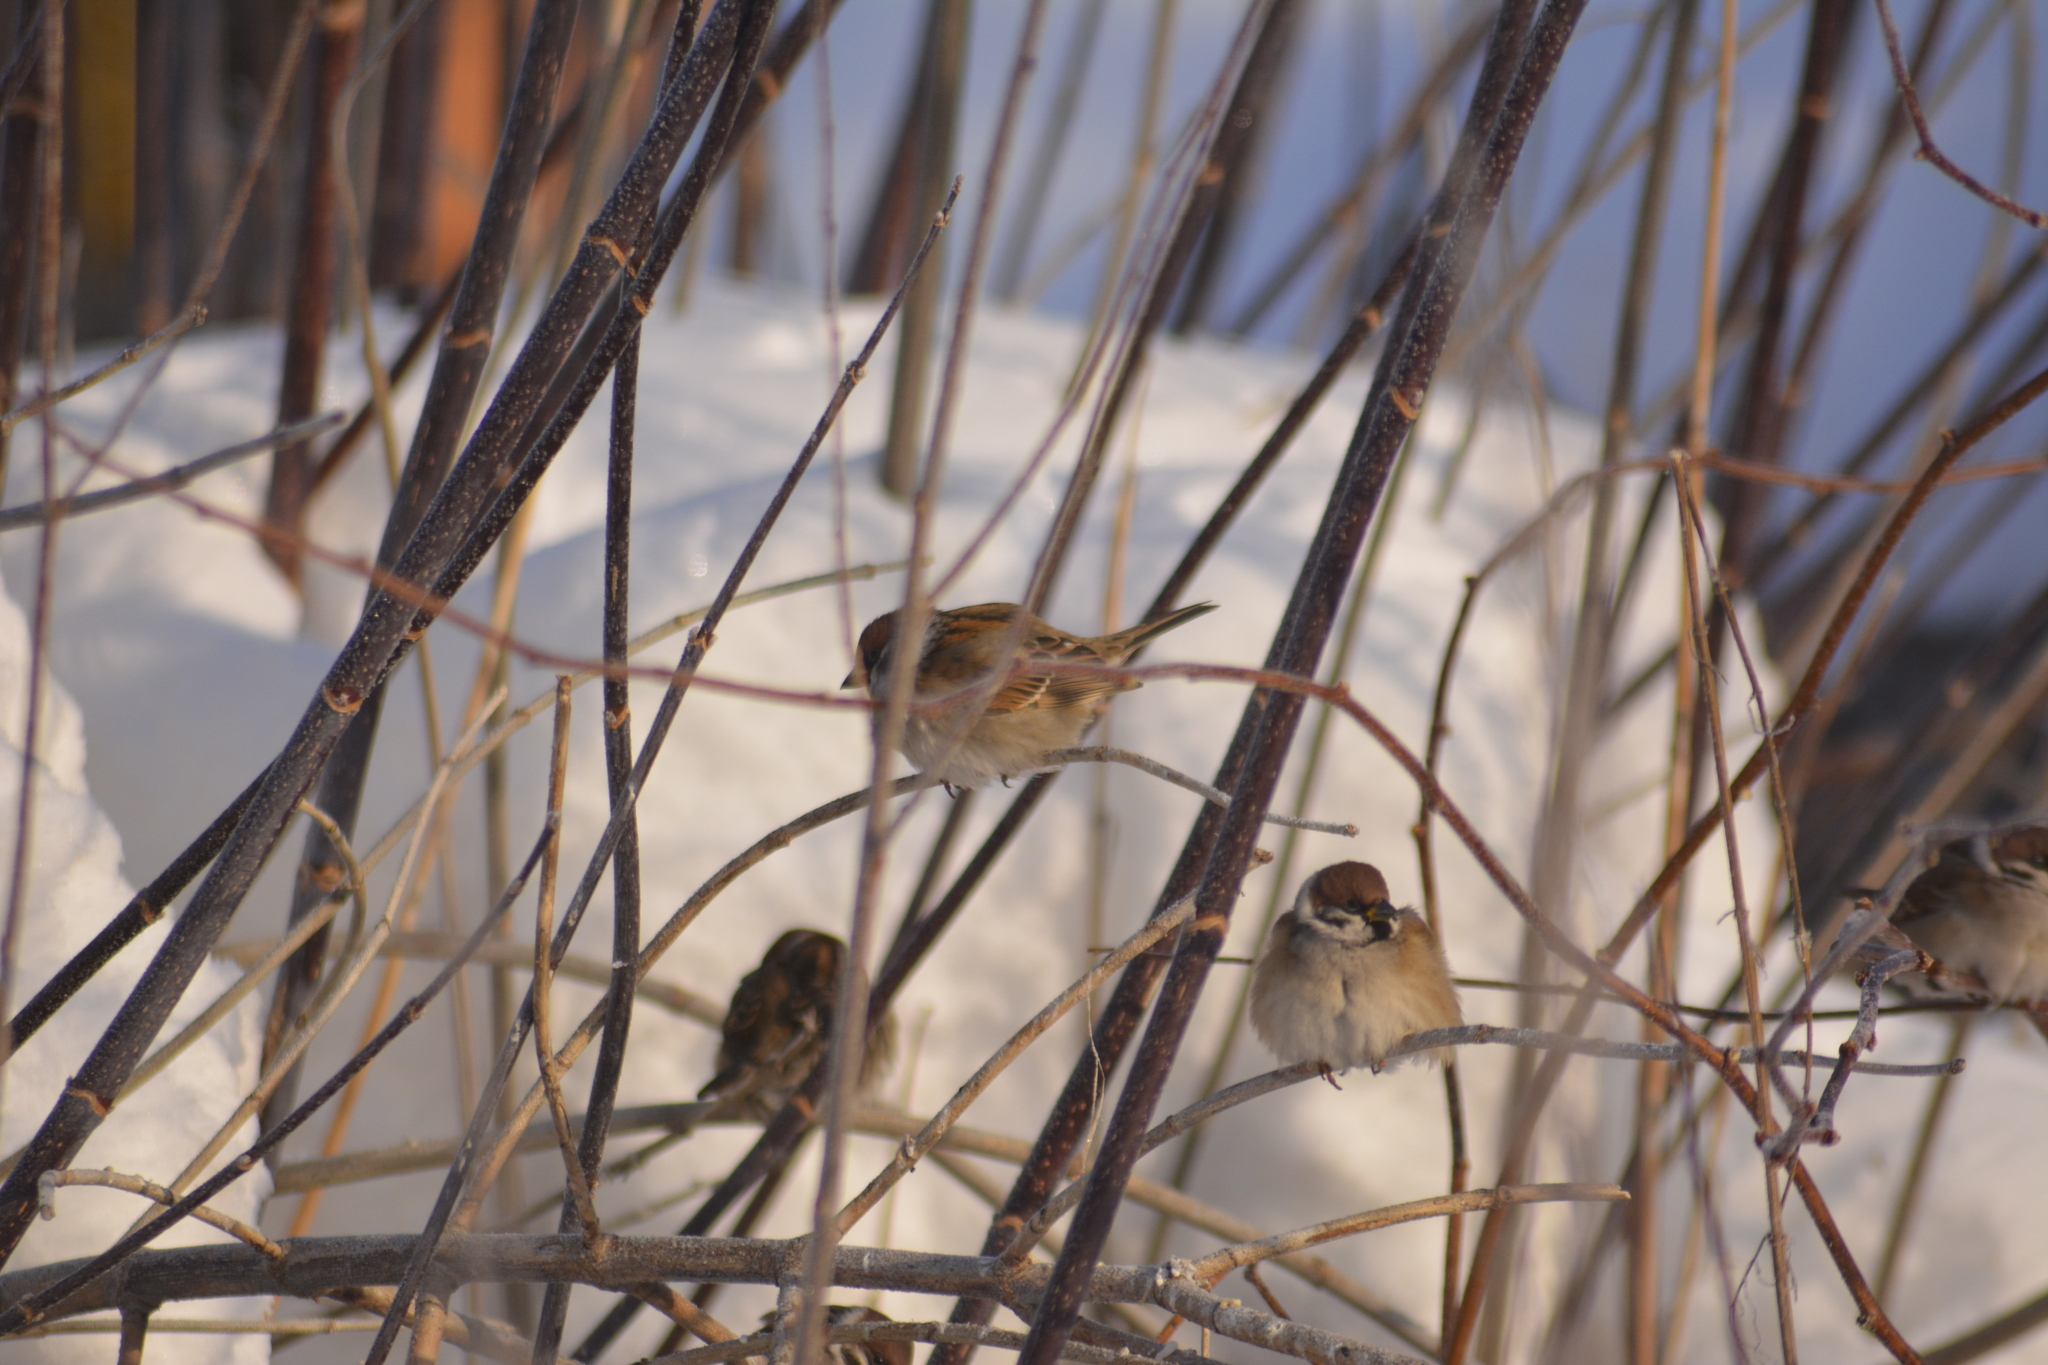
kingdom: Animalia
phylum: Chordata
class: Aves
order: Passeriformes
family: Passeridae
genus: Passer
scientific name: Passer montanus
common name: Eurasian tree sparrow
